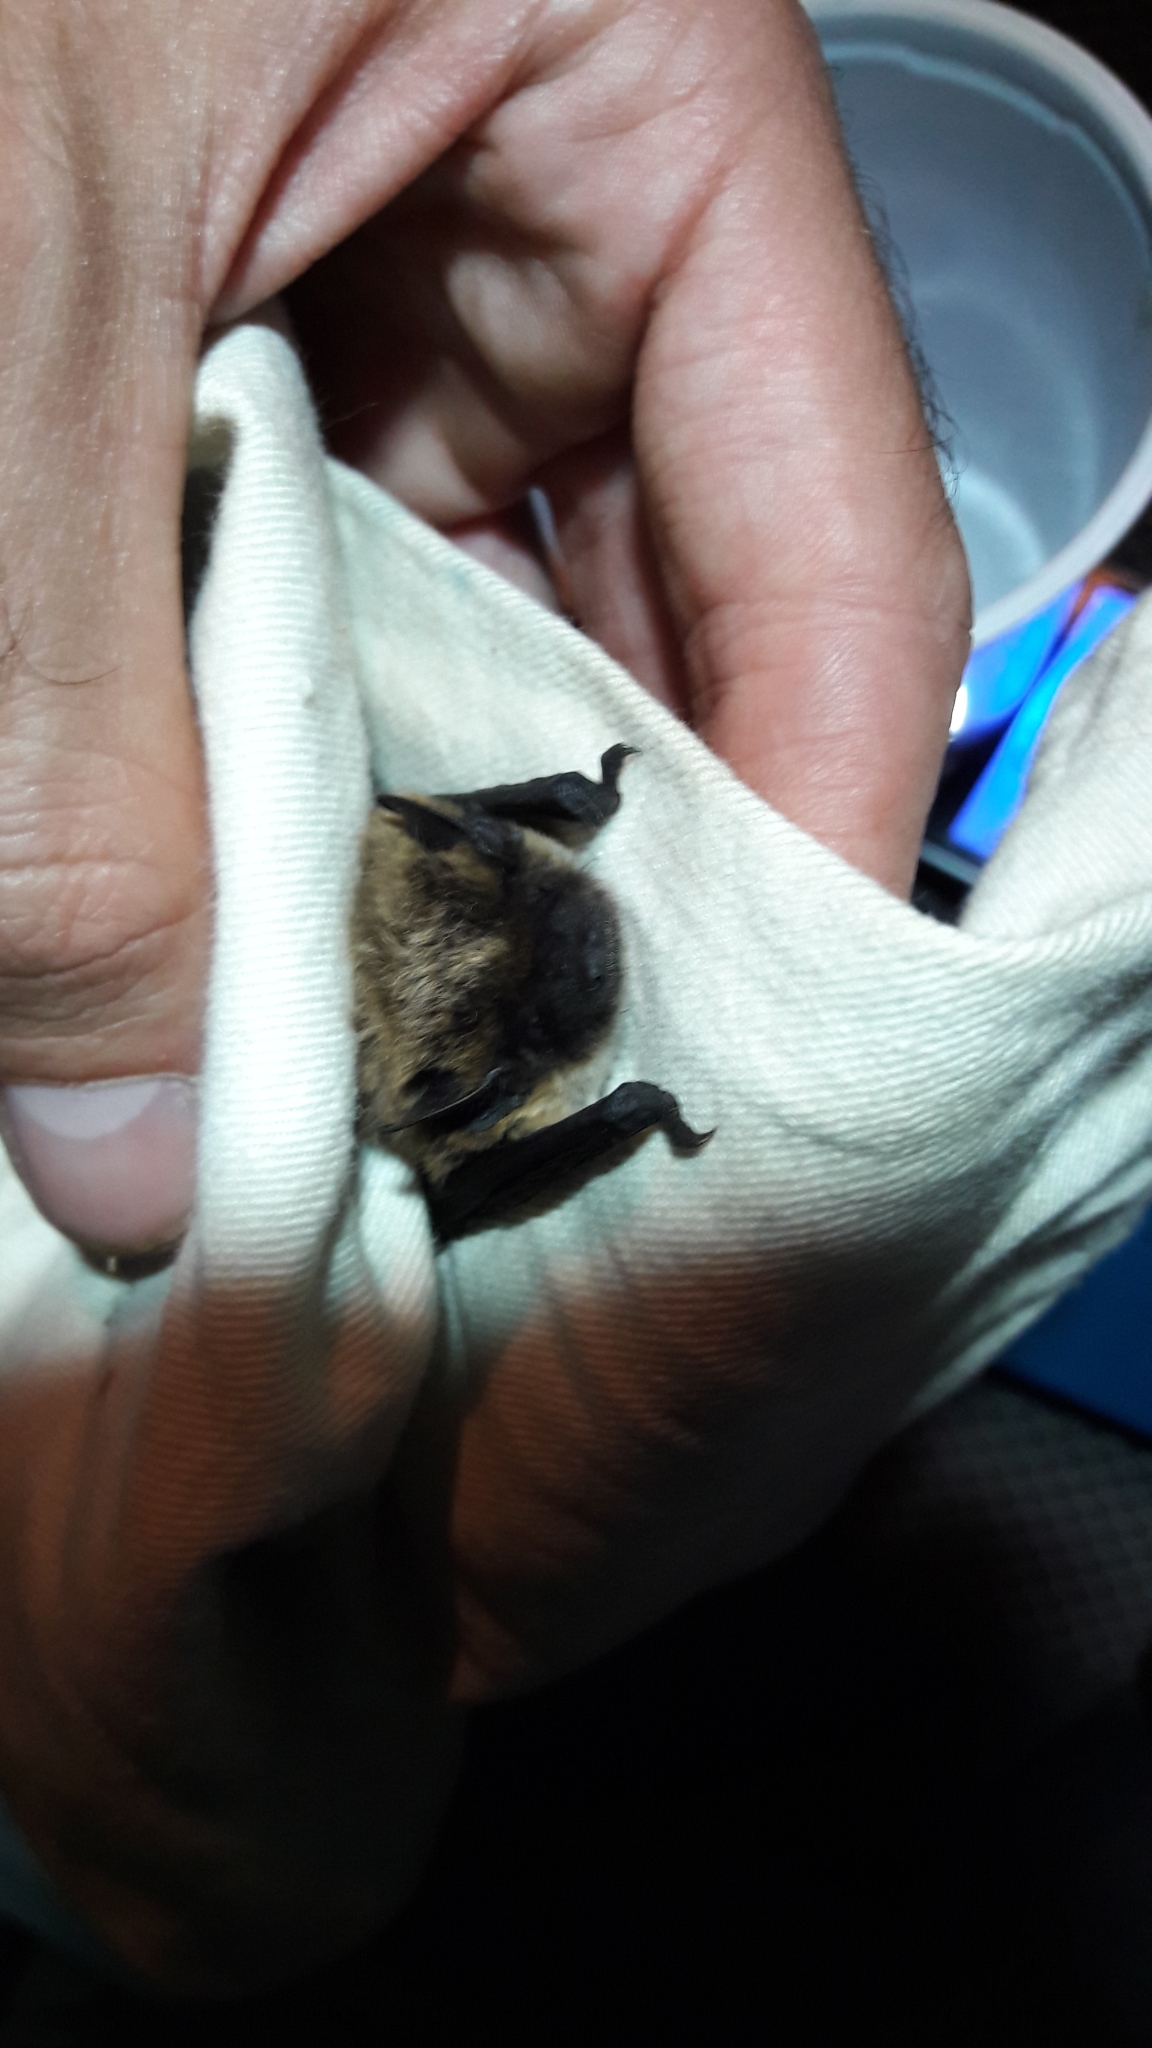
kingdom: Animalia
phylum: Chordata
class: Mammalia
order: Chiroptera
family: Vespertilionidae
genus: Hypsugo
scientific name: Hypsugo savii
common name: Savi's pipistrelle
